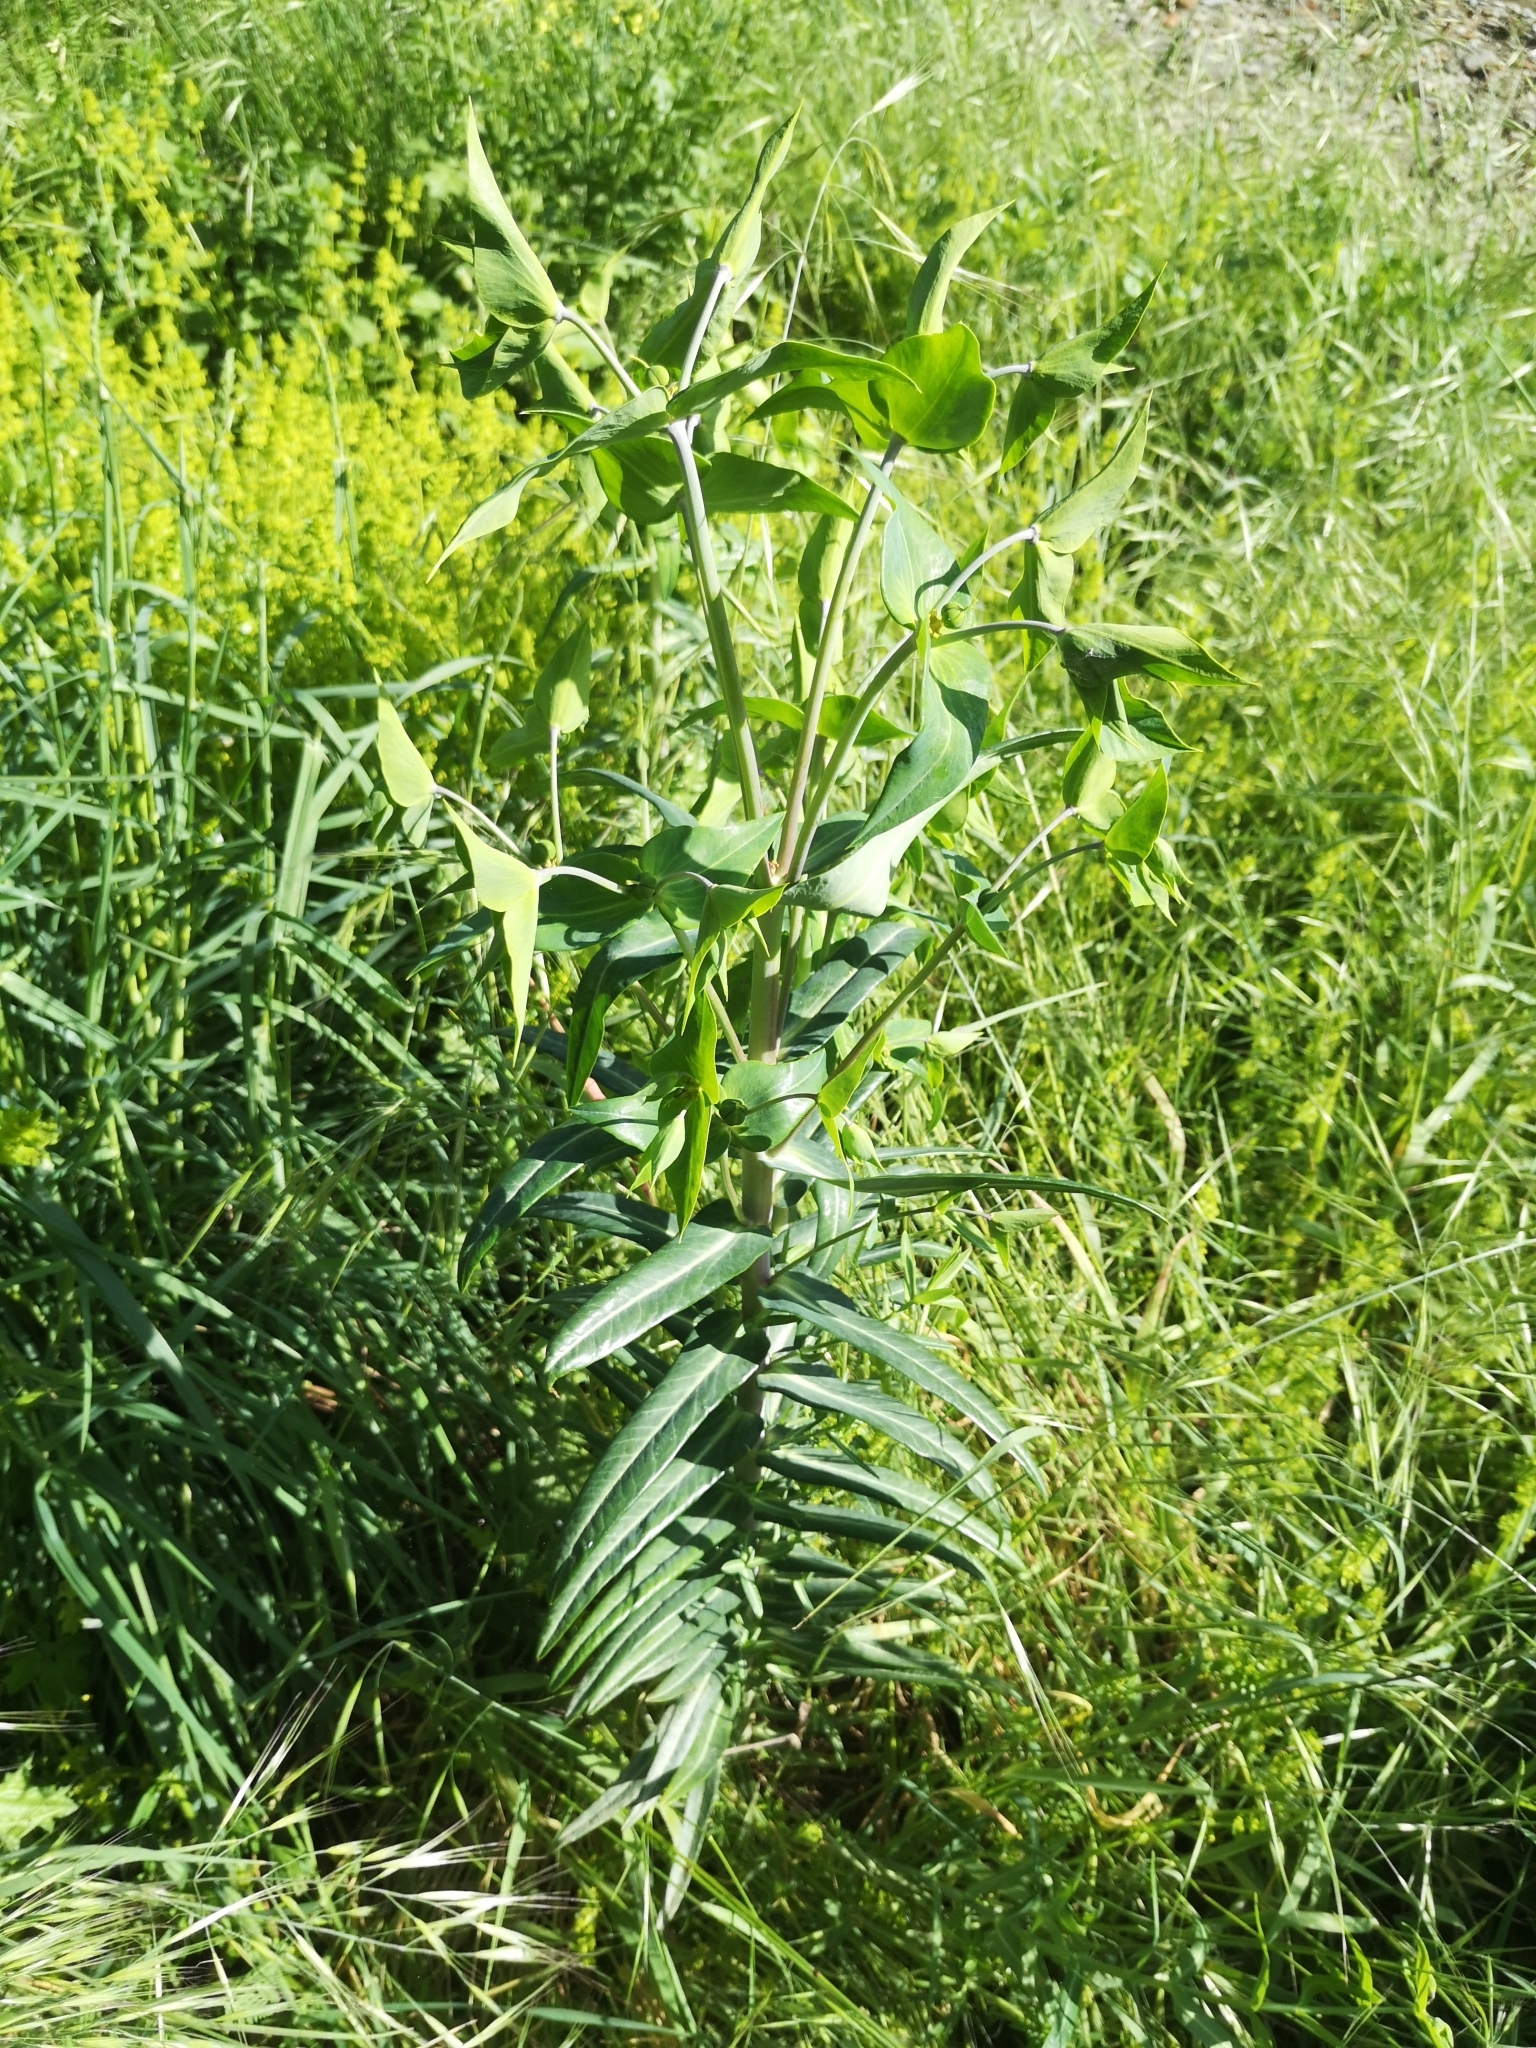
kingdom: Plantae
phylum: Tracheophyta
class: Magnoliopsida
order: Malpighiales
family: Euphorbiaceae
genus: Euphorbia
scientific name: Euphorbia lathyris
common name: Caper spurge
